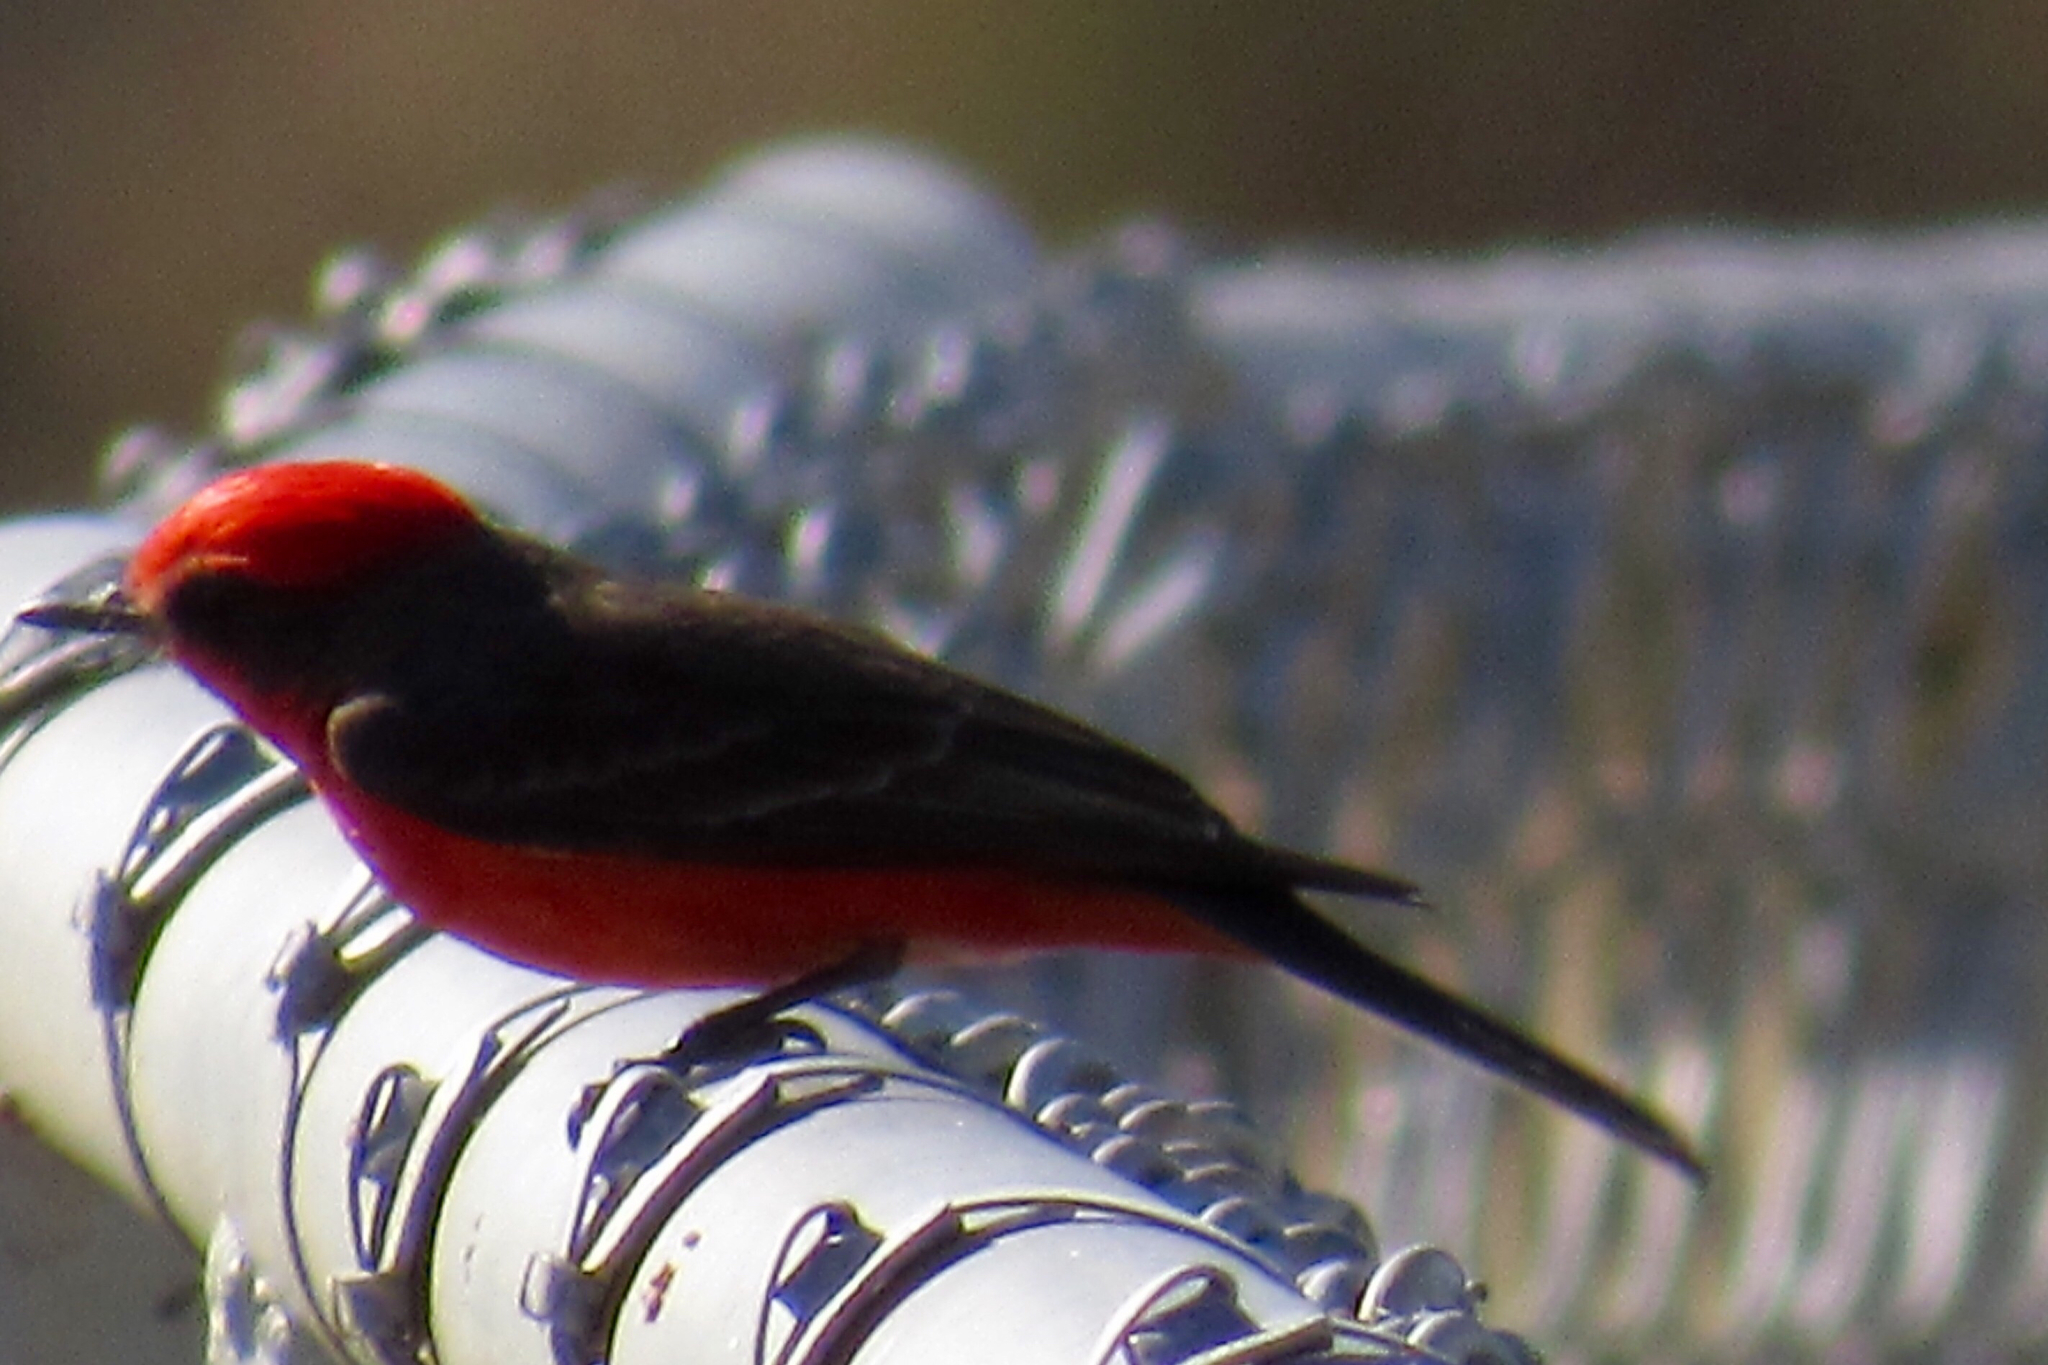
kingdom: Animalia
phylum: Chordata
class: Aves
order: Passeriformes
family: Tyrannidae
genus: Pyrocephalus
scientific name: Pyrocephalus rubinus
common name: Vermilion flycatcher
